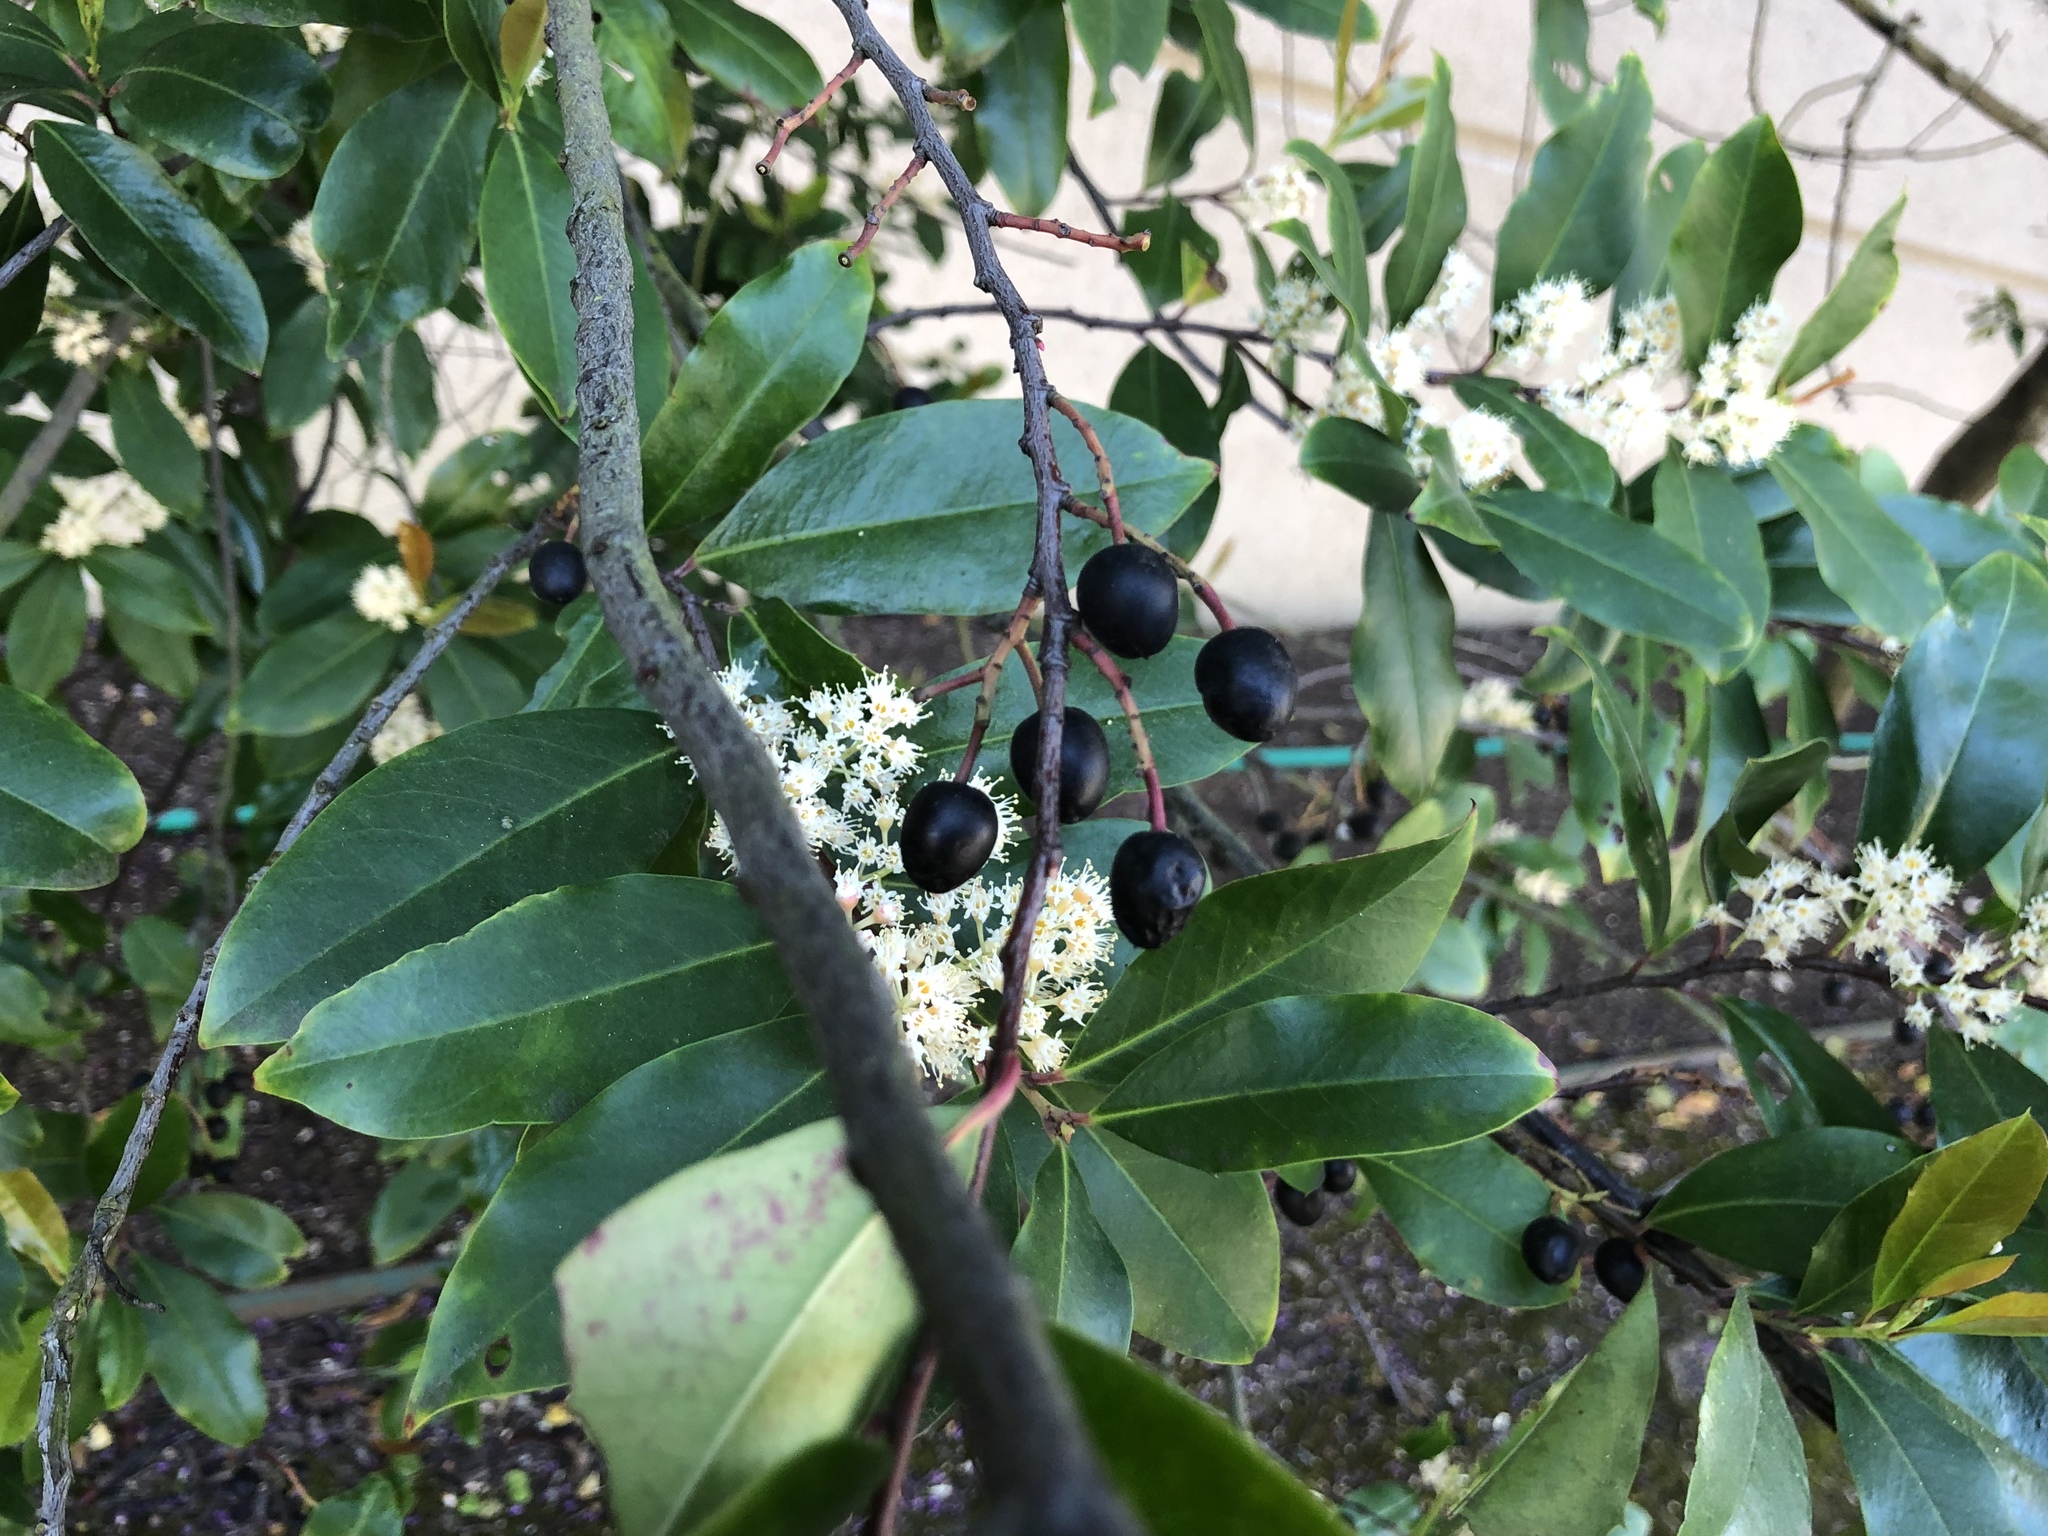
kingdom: Plantae
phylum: Tracheophyta
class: Magnoliopsida
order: Rosales
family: Rosaceae
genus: Prunus
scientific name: Prunus caroliniana
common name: Carolina laurel cherry
